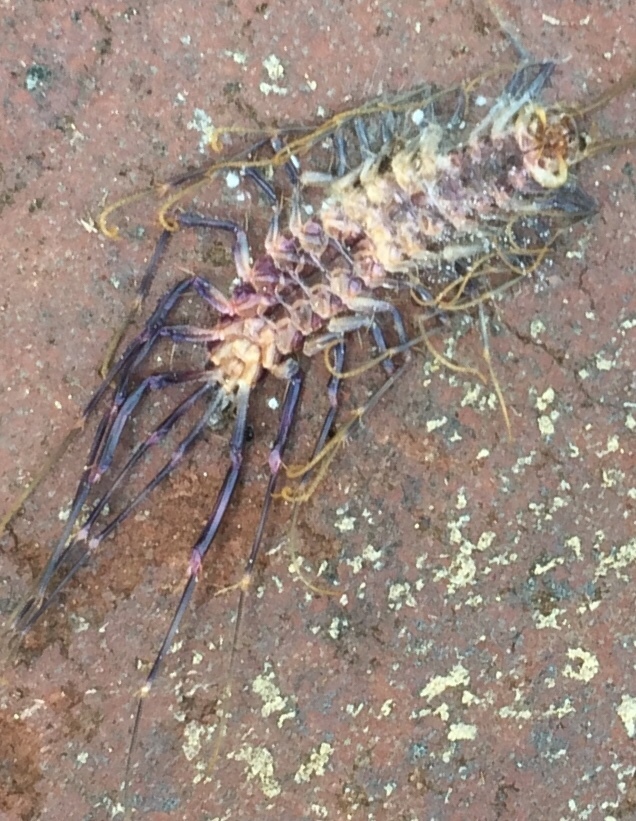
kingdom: Animalia
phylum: Arthropoda
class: Chilopoda
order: Scutigeromorpha
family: Scutigeridae
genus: Scutigera
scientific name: Scutigera coleoptrata
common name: House centipede
